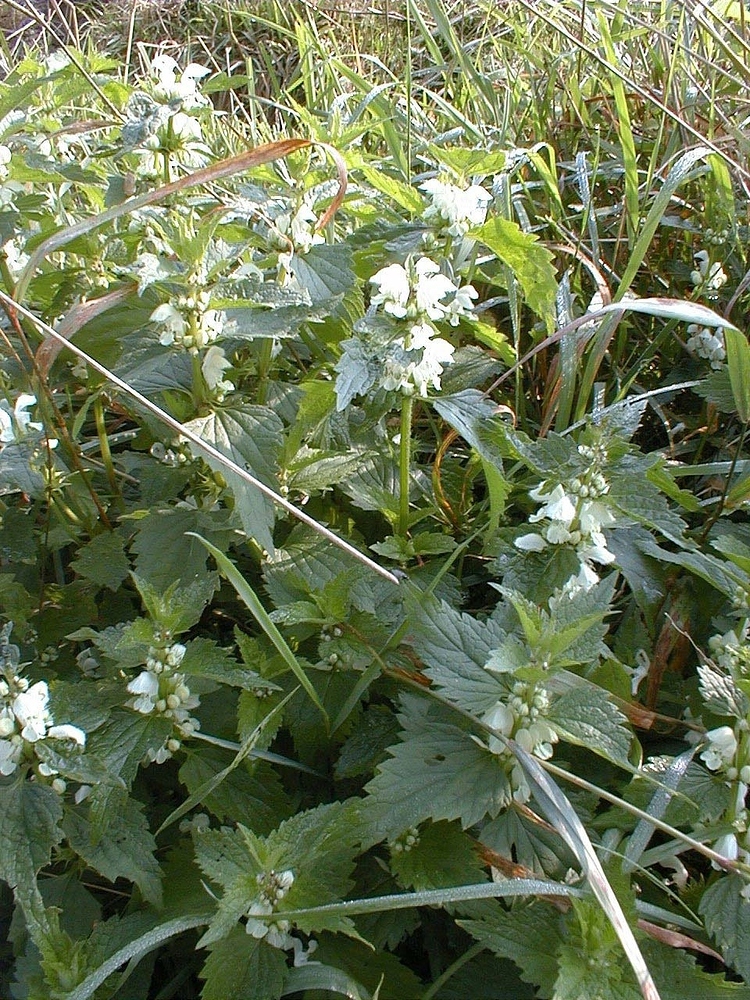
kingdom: Plantae
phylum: Tracheophyta
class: Magnoliopsida
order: Lamiales
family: Lamiaceae
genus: Lamium
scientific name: Lamium album
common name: White dead-nettle
